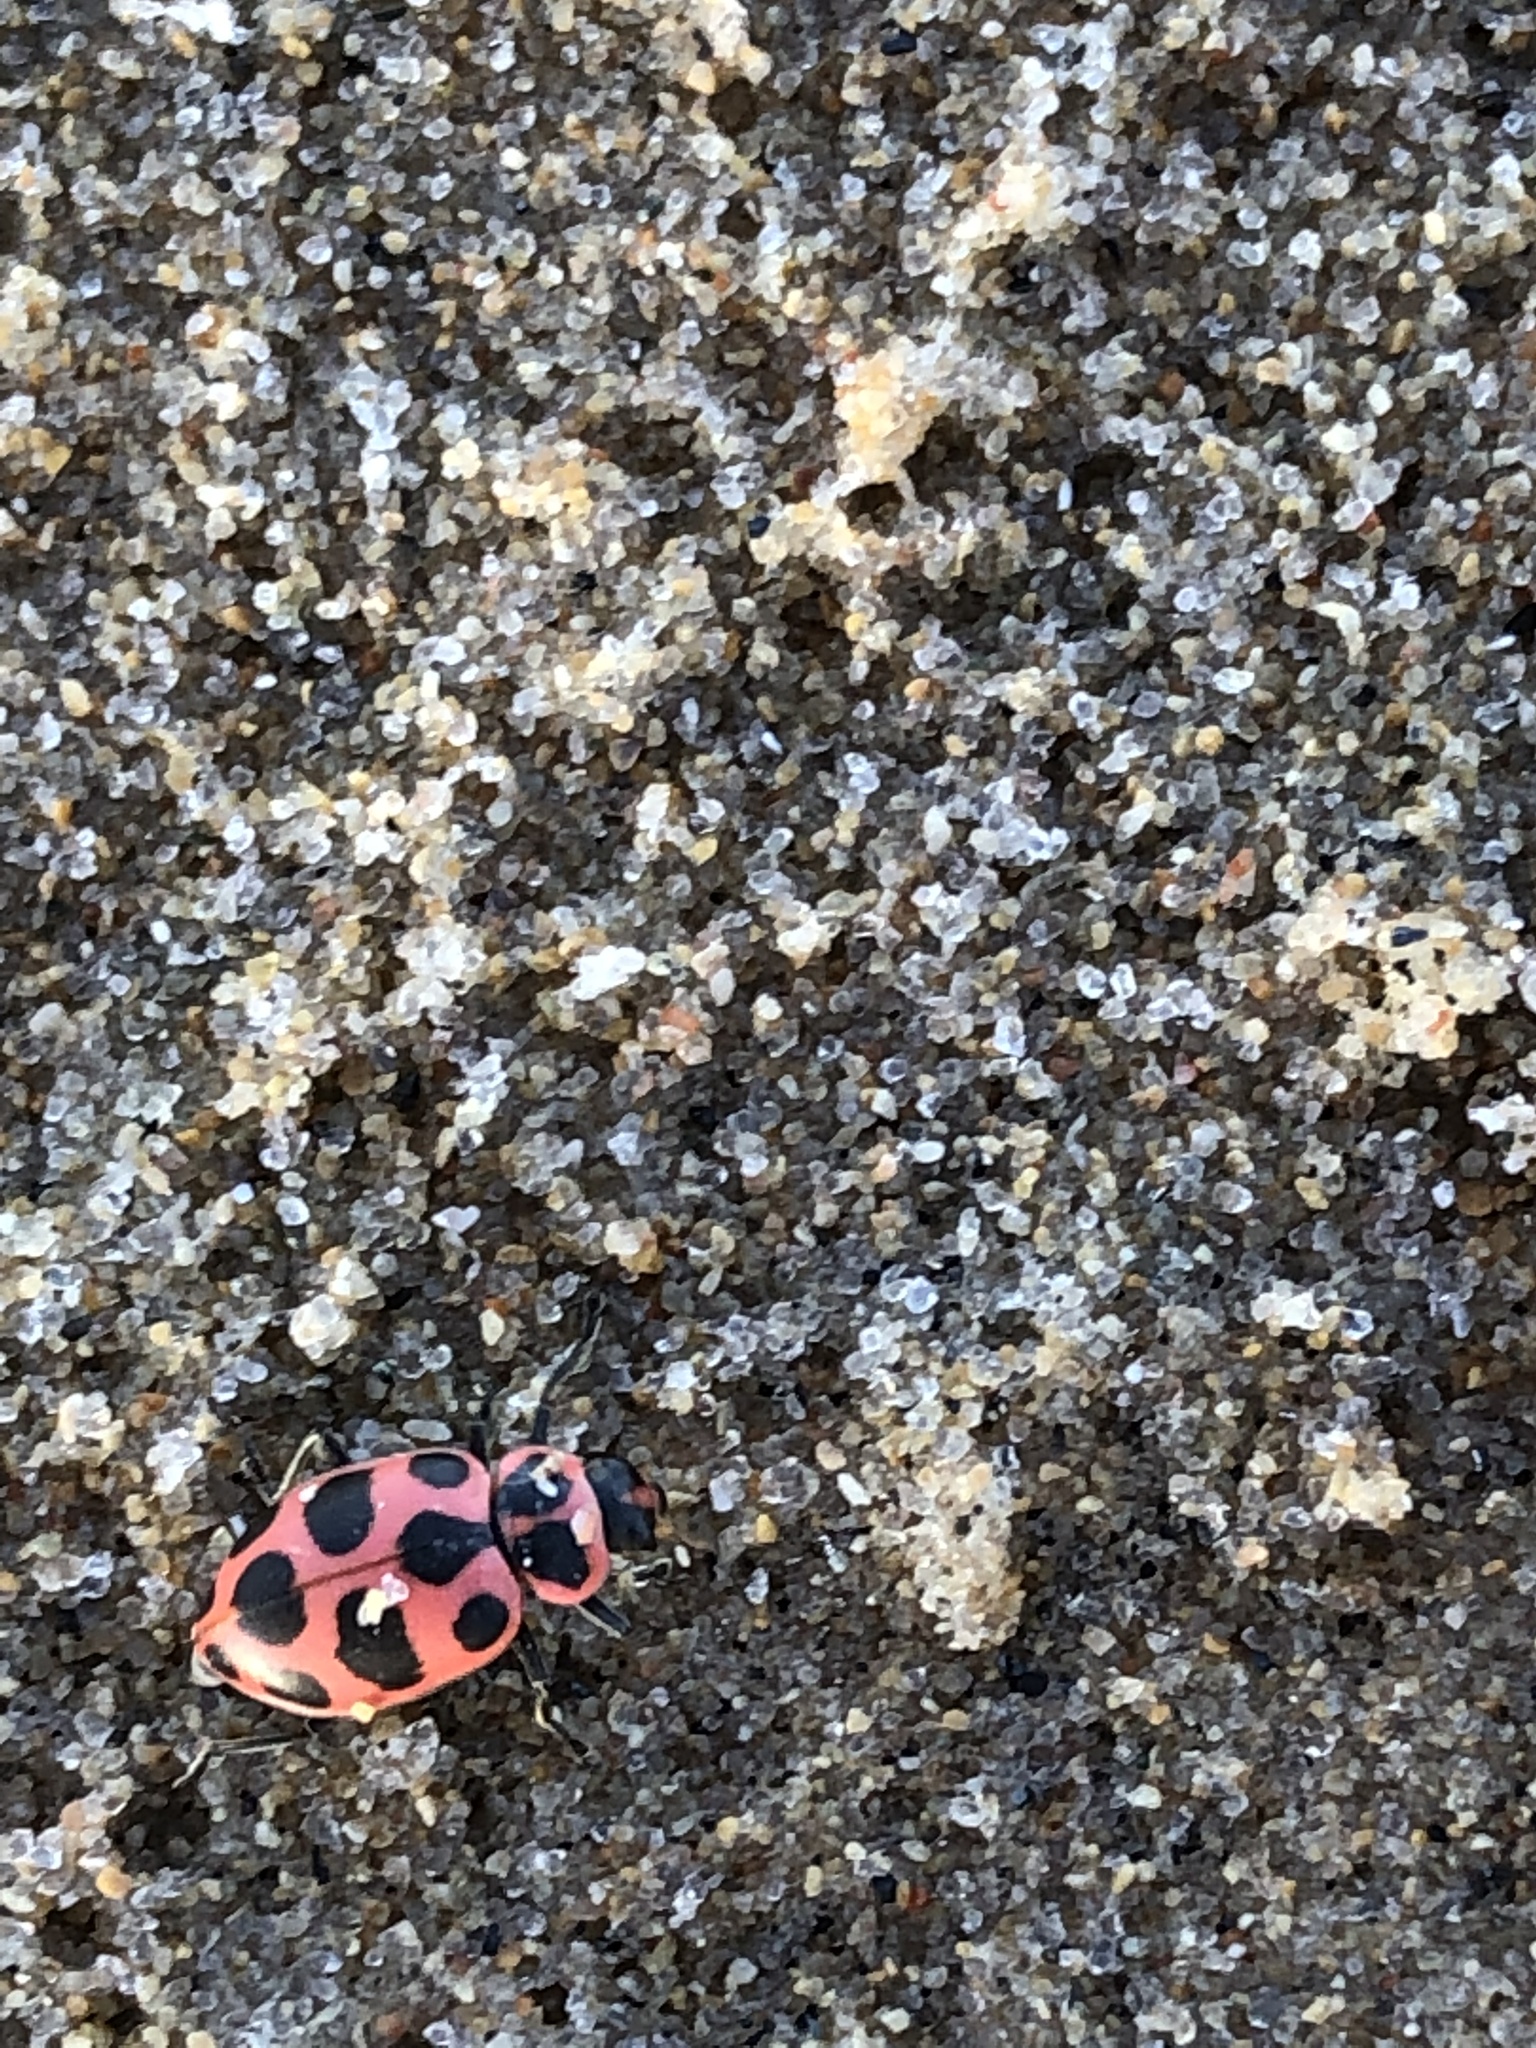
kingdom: Animalia
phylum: Arthropoda
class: Insecta
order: Coleoptera
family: Coccinellidae
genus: Coleomegilla
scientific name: Coleomegilla maculata
